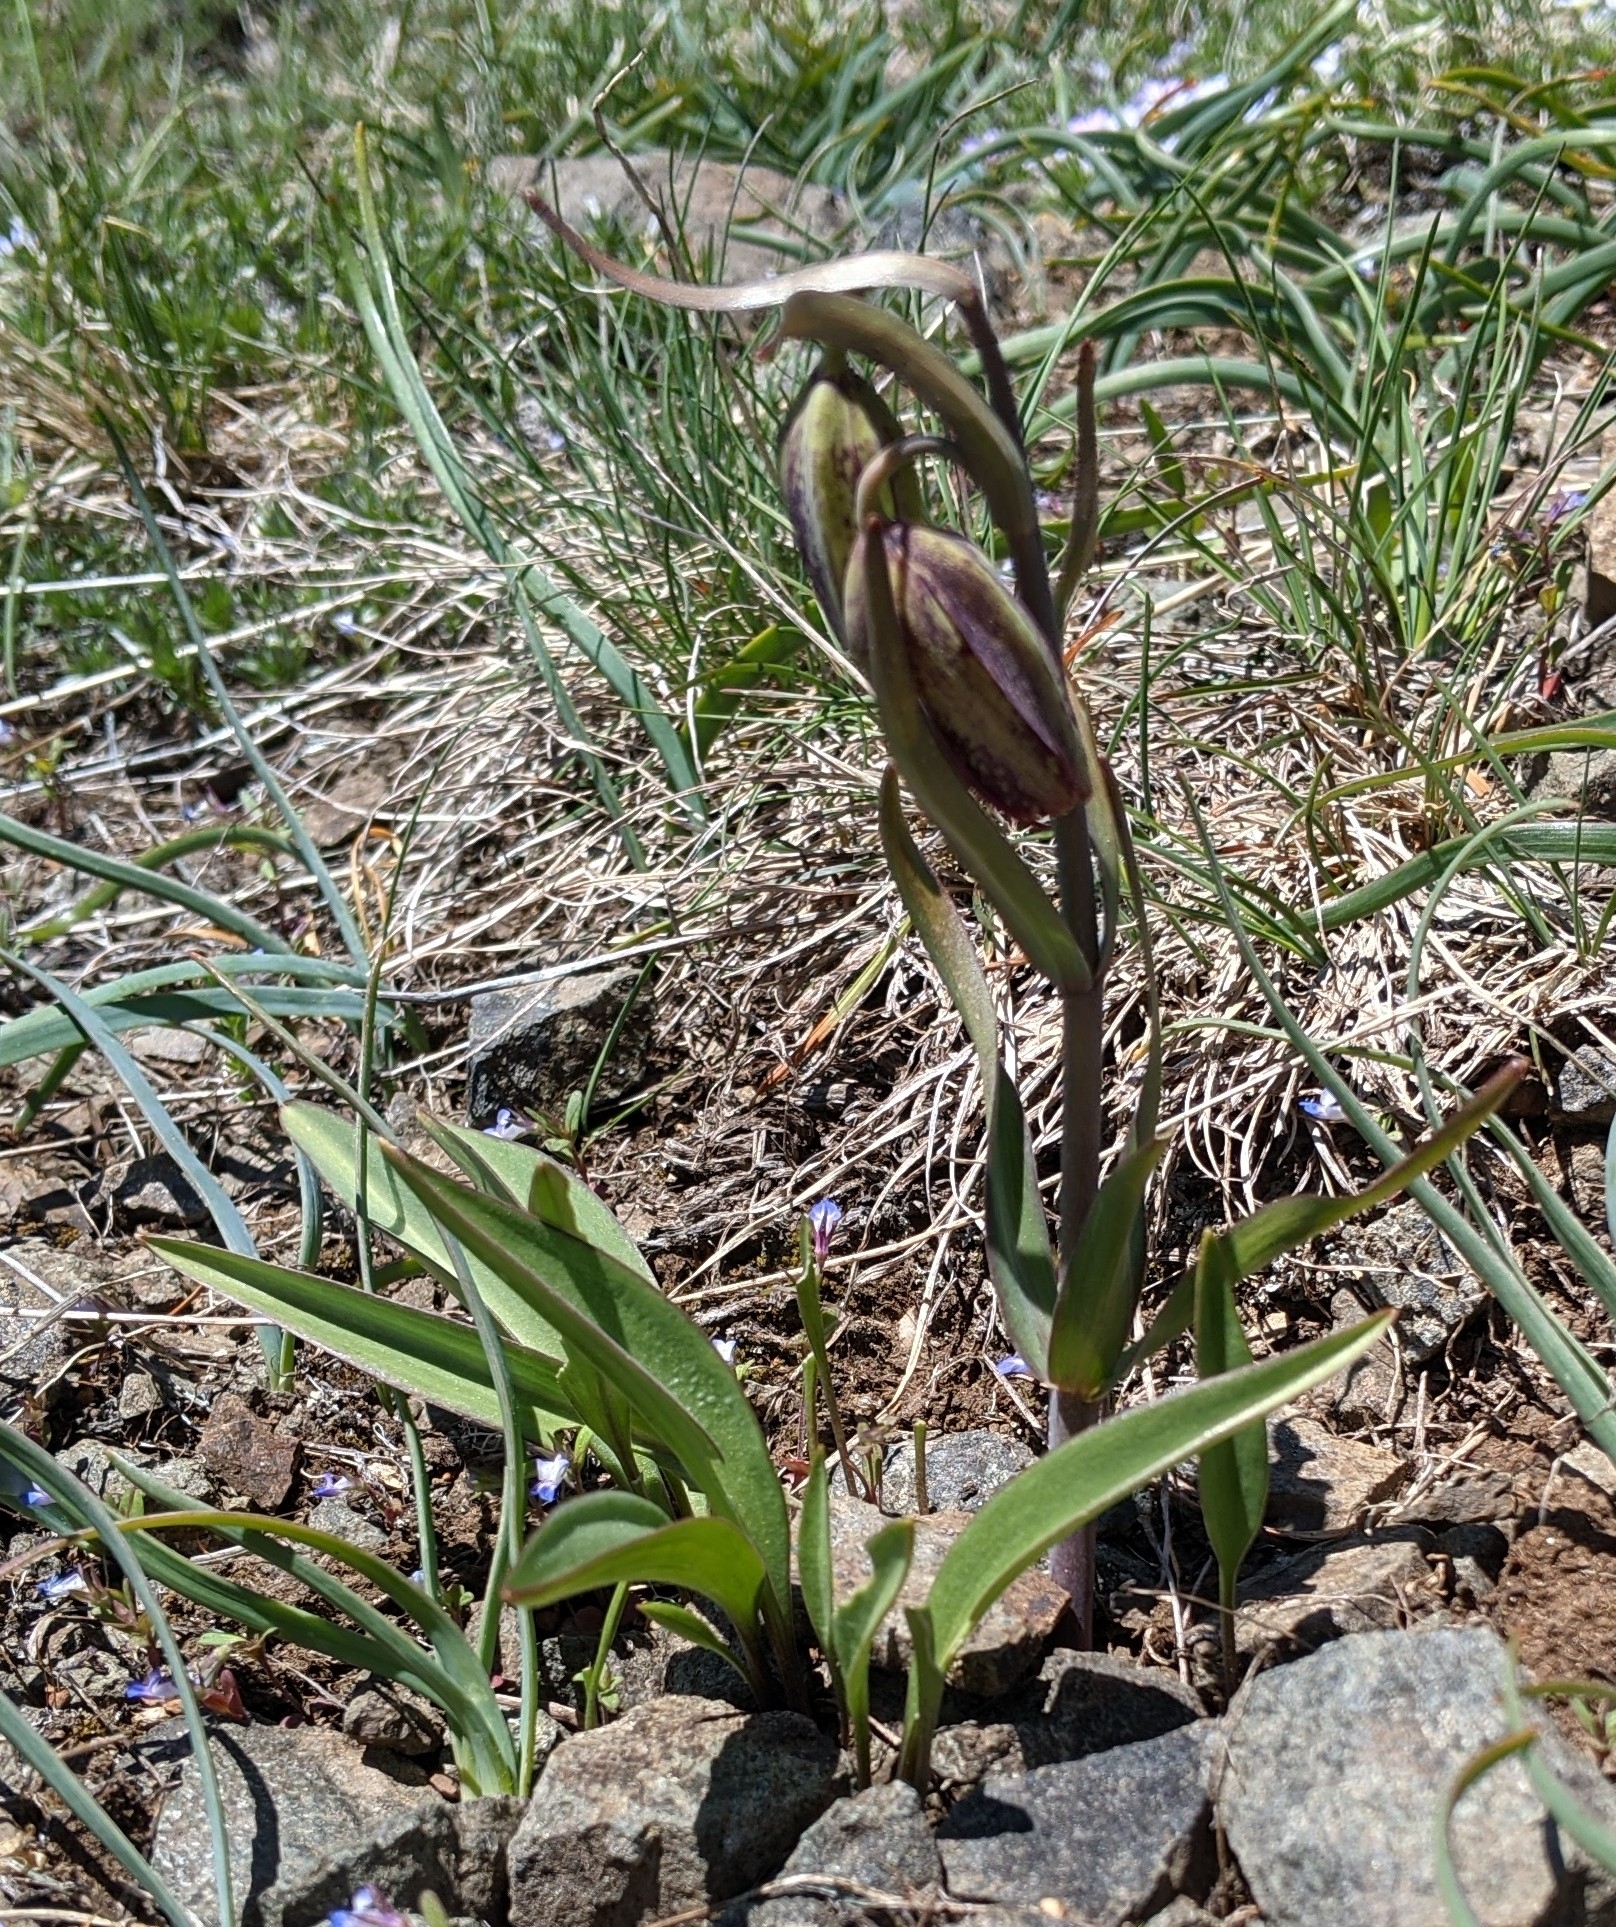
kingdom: Plantae
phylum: Tracheophyta
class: Liliopsida
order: Liliales
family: Liliaceae
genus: Fritillaria
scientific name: Fritillaria affinis
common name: Ojai fritillary
